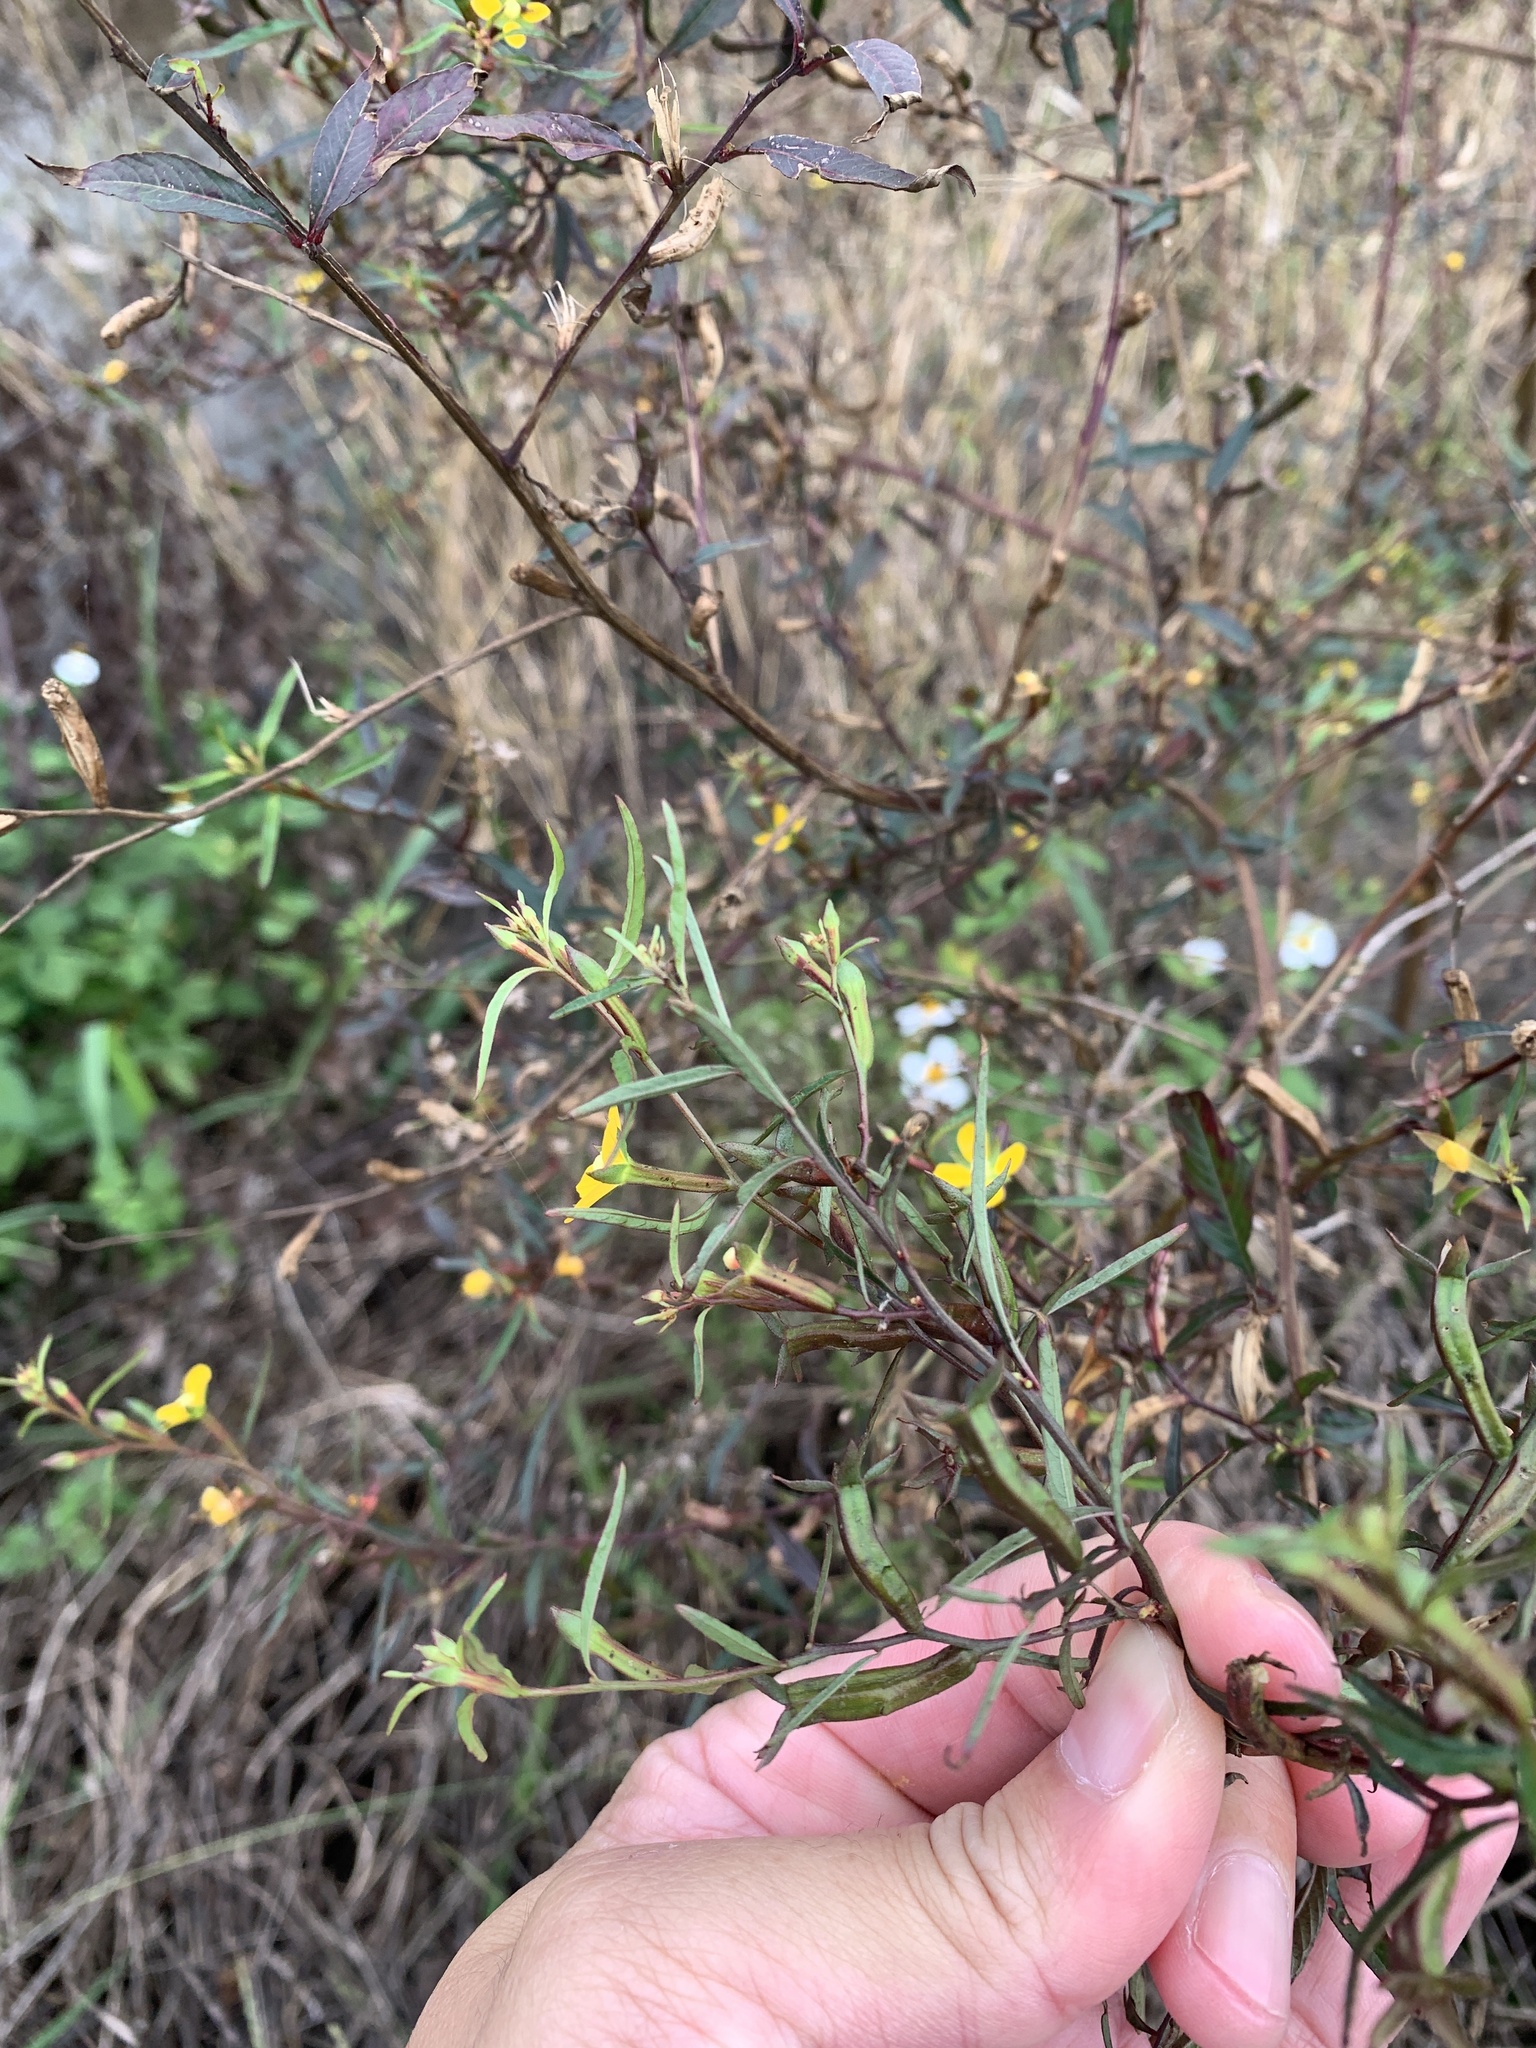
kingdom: Plantae
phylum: Tracheophyta
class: Magnoliopsida
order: Myrtales
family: Onagraceae
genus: Ludwigia
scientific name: Ludwigia erecta
